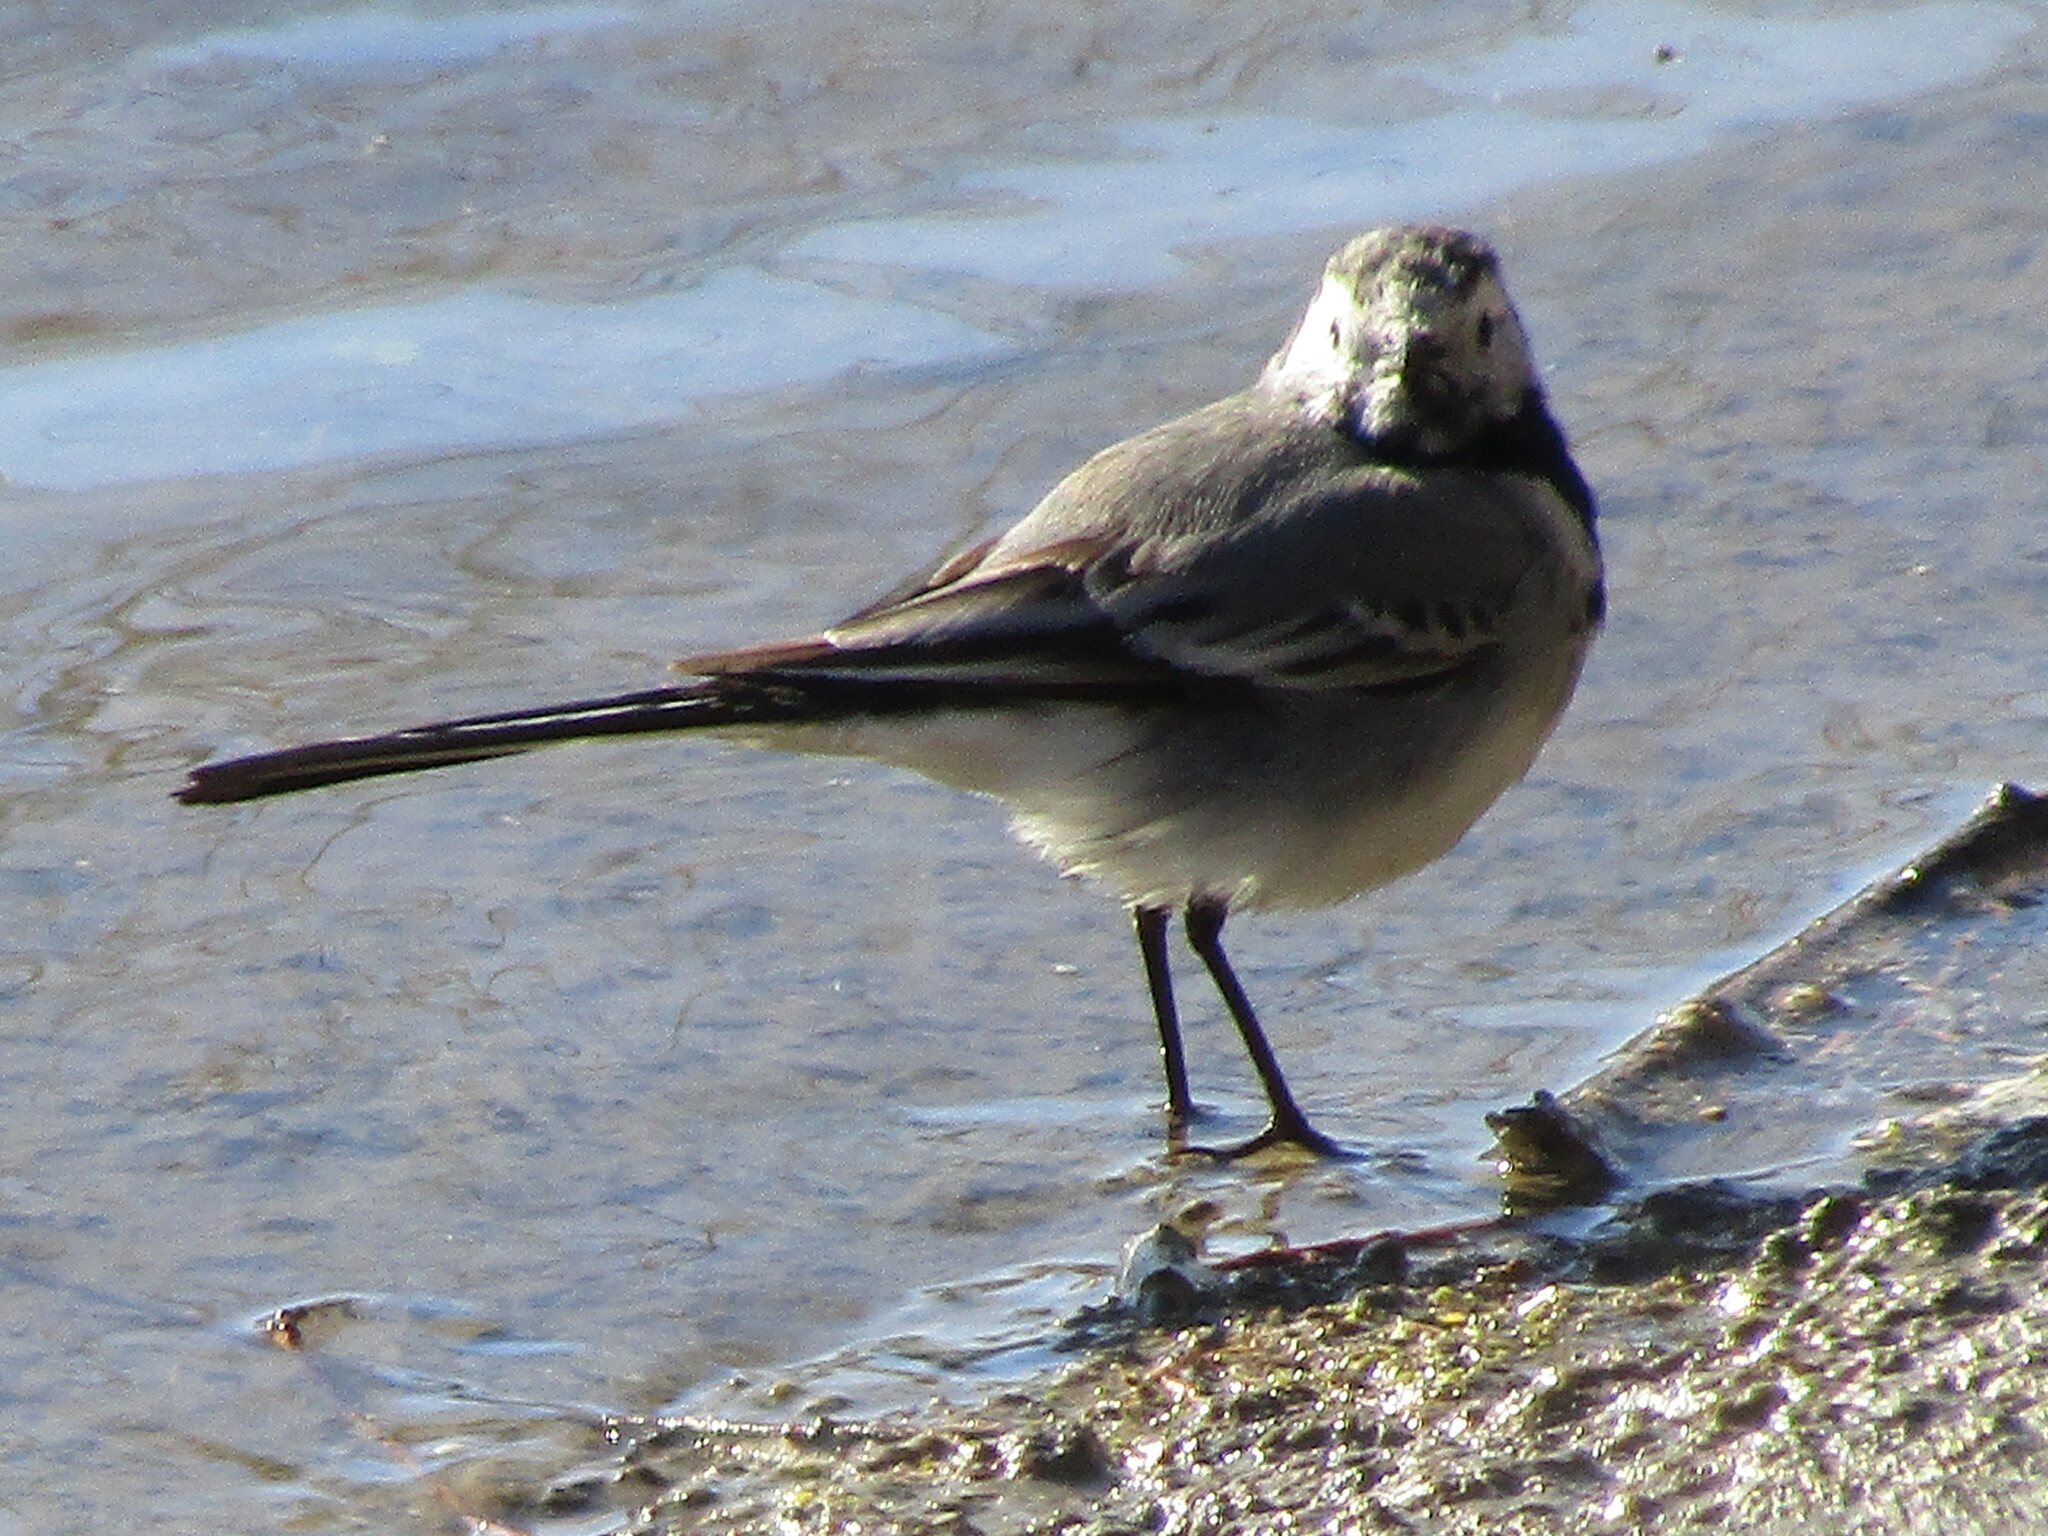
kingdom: Animalia
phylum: Chordata
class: Aves
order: Passeriformes
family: Motacillidae
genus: Motacilla
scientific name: Motacilla alba
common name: White wagtail
